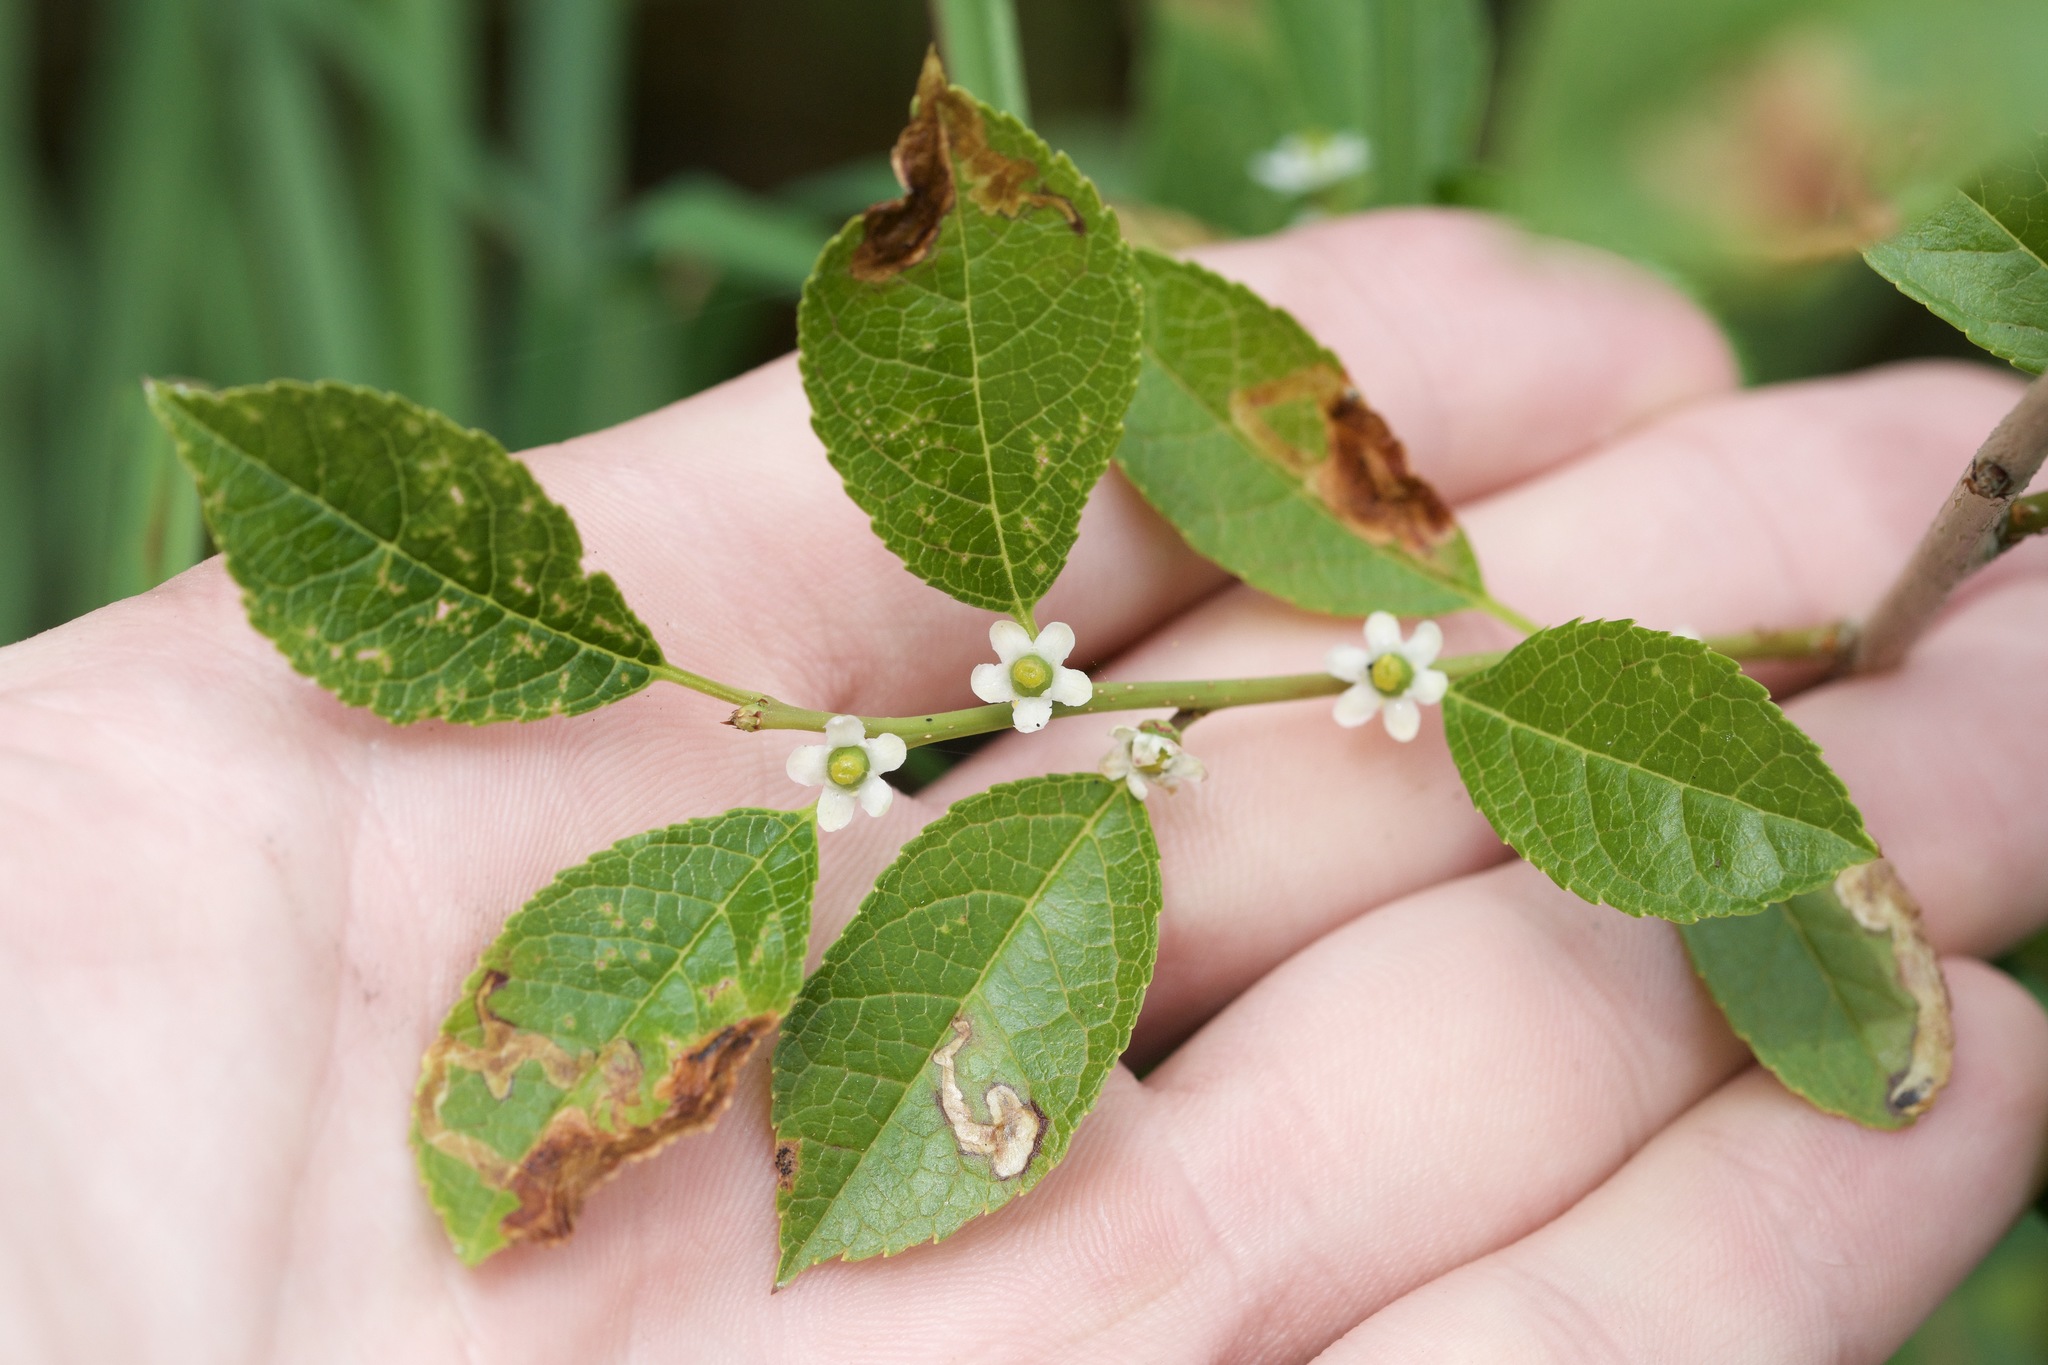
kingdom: Plantae
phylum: Tracheophyta
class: Magnoliopsida
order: Aquifoliales
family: Aquifoliaceae
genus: Ilex
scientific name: Ilex verticillata
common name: Virginia winterberry
